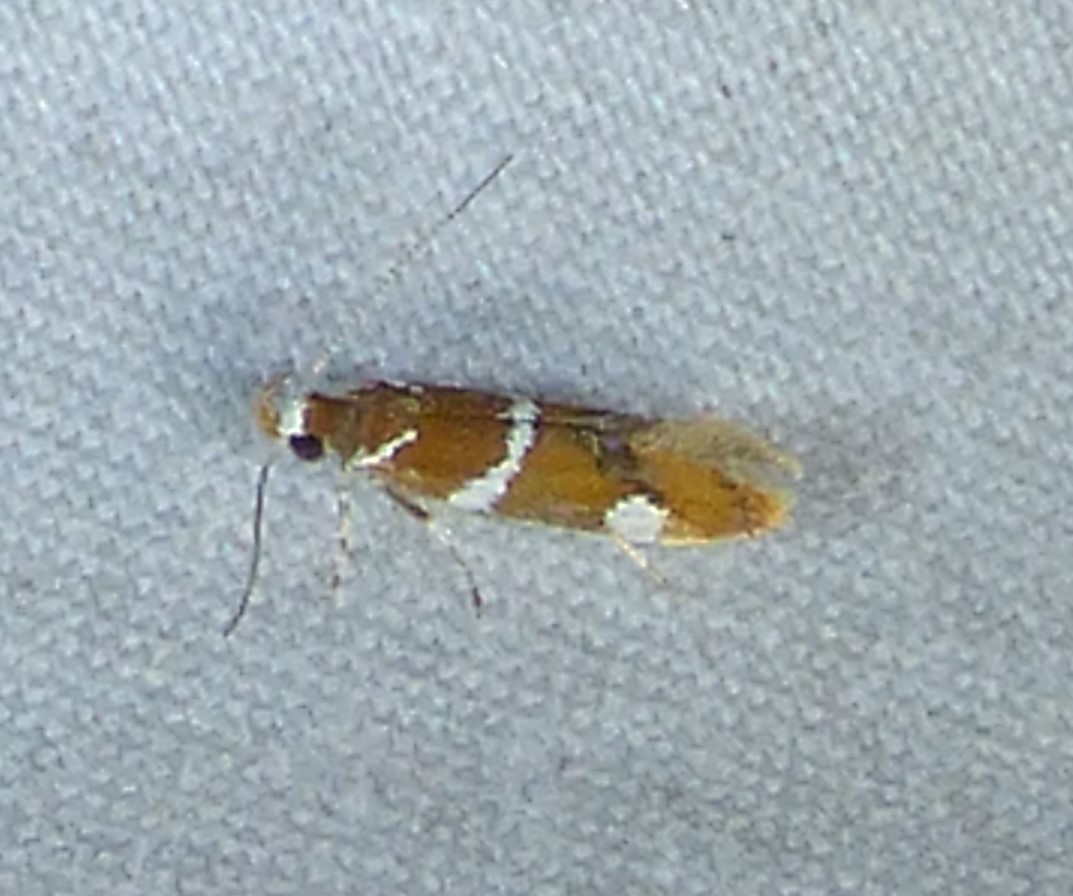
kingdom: Animalia
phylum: Arthropoda
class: Insecta
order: Lepidoptera
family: Oecophoridae
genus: Promalactis
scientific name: Promalactis suzukiella
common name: Moth
